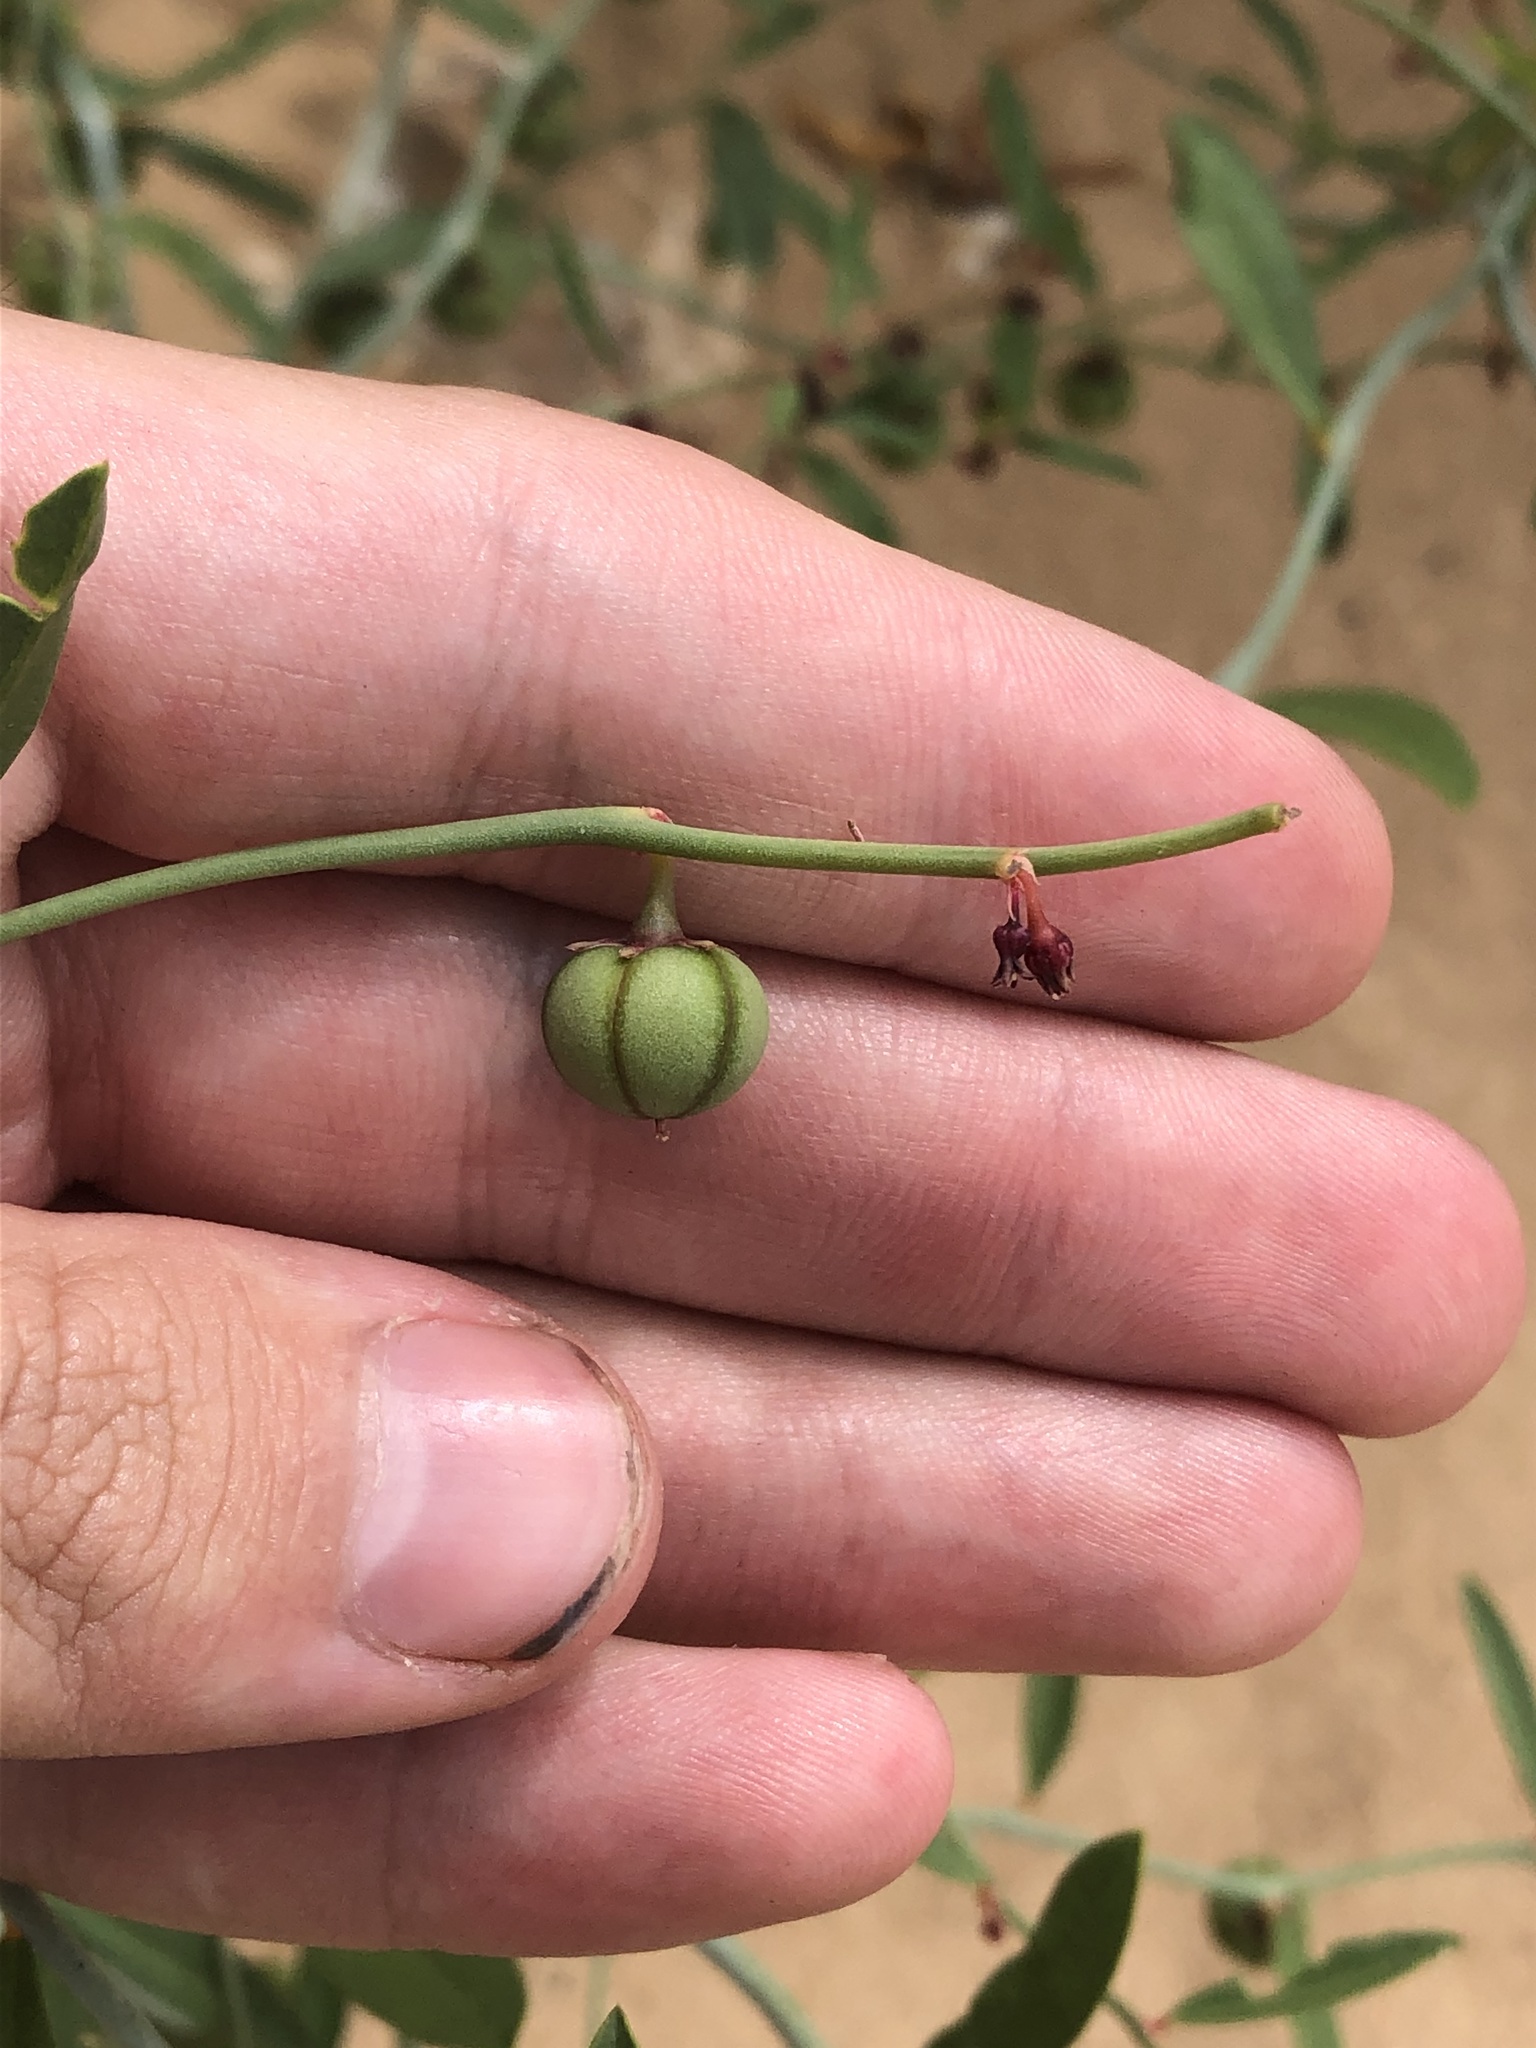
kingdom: Plantae
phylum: Tracheophyta
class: Magnoliopsida
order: Malpighiales
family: Phyllanthaceae
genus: Phyllanthus
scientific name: Phyllanthus warnockii
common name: Sand reverchonia
